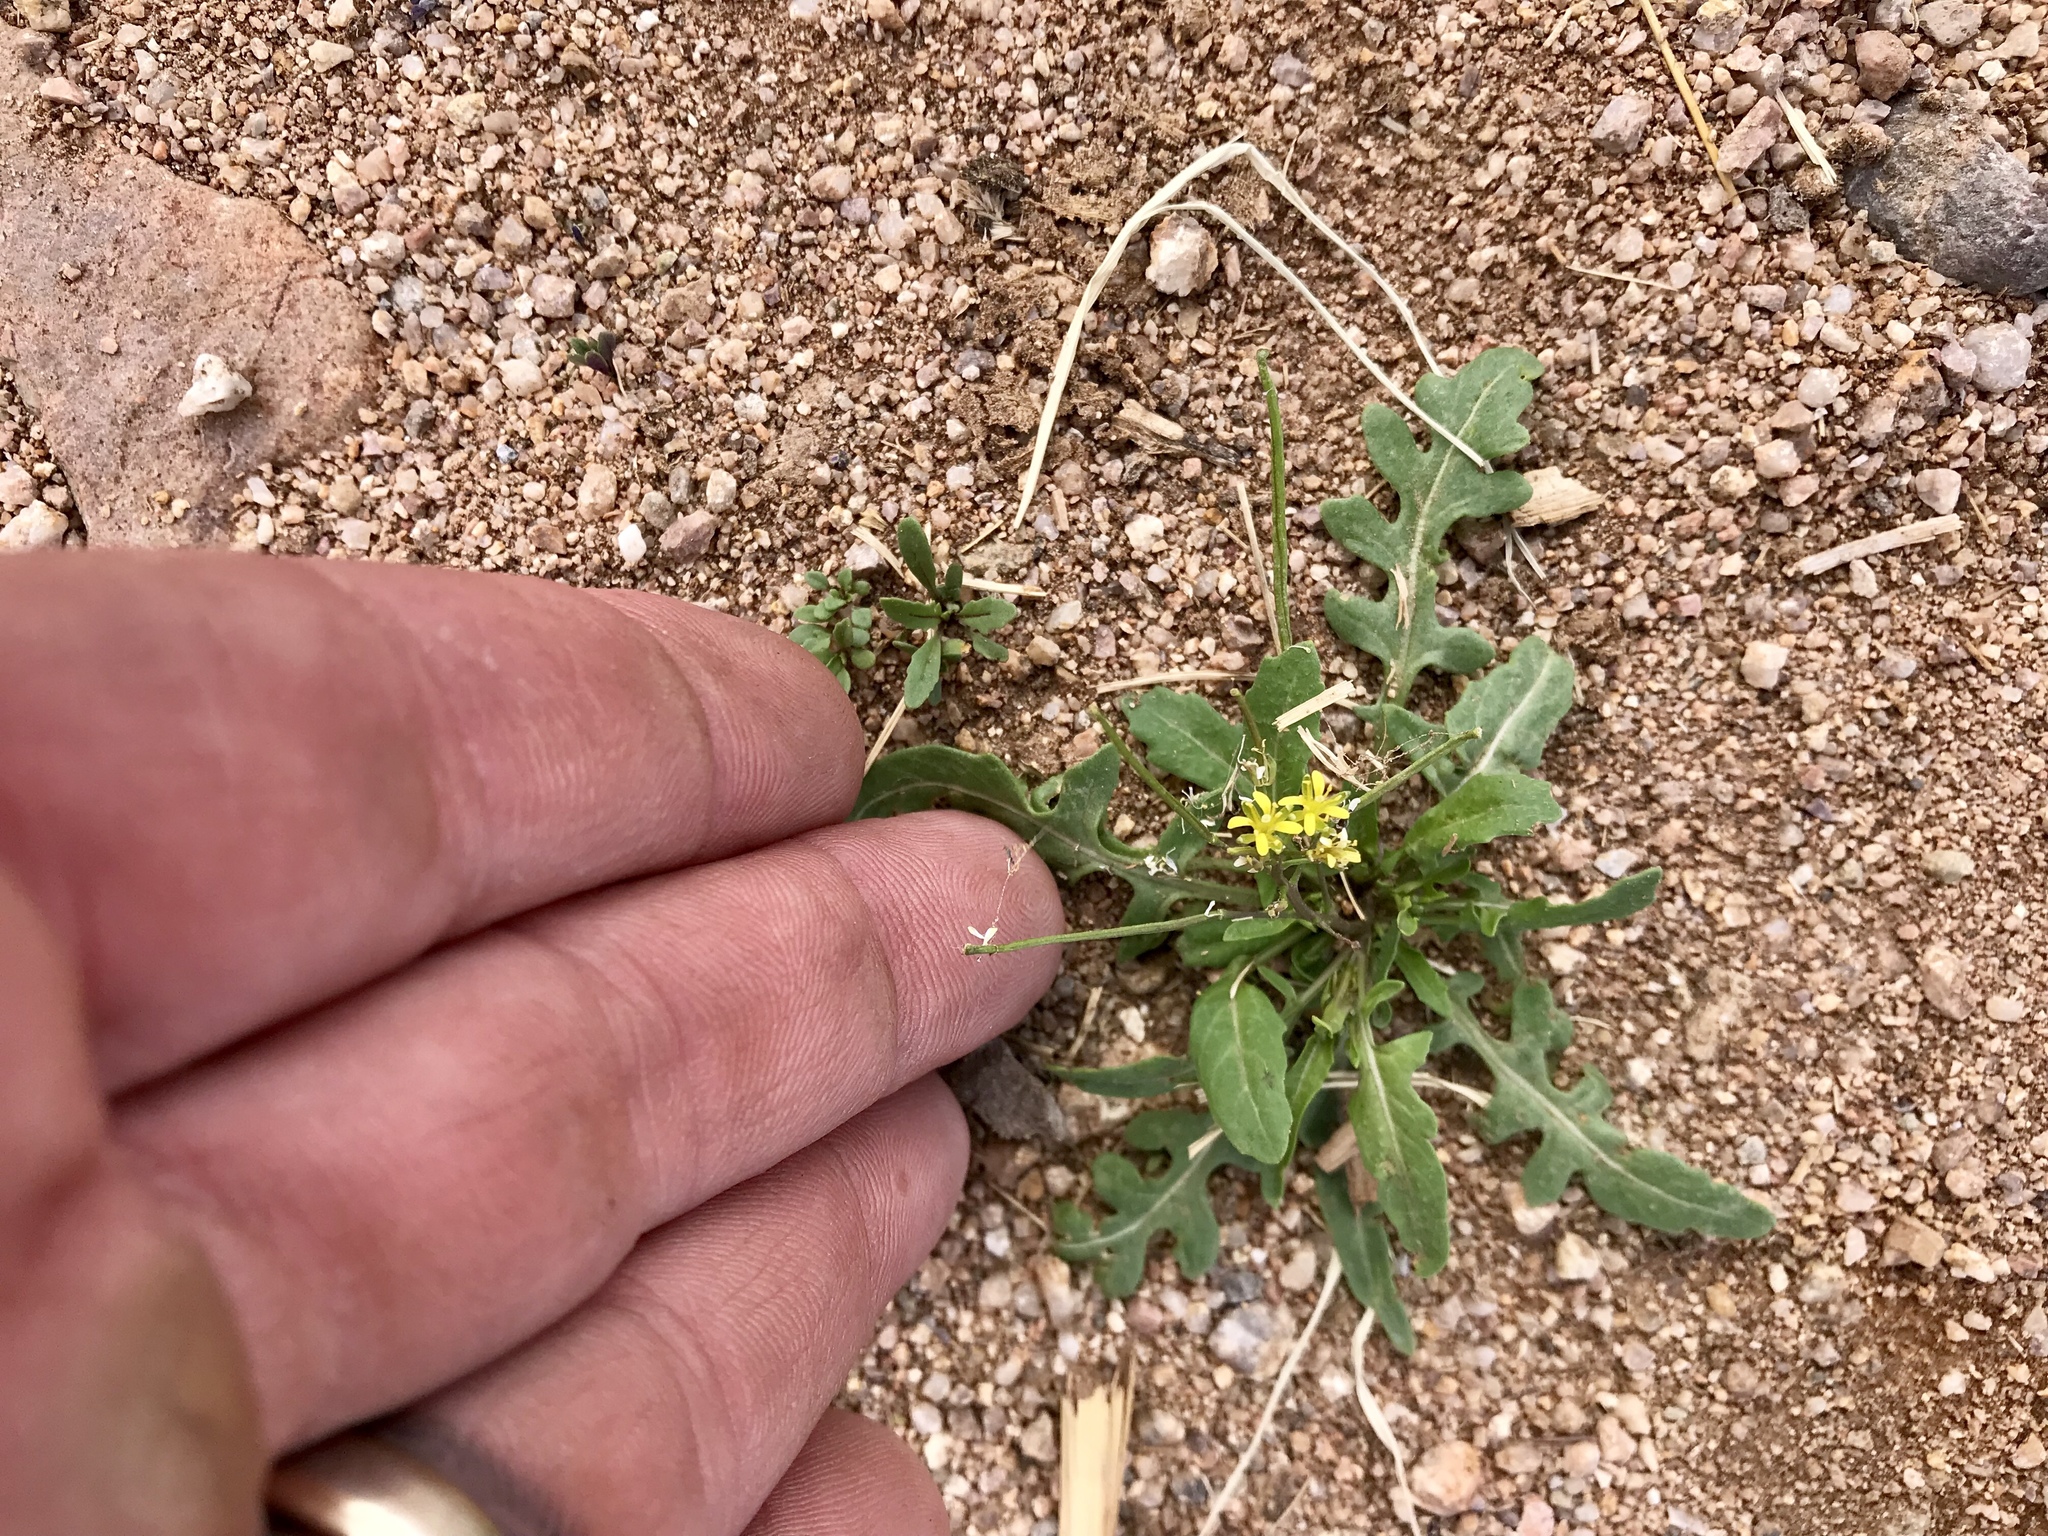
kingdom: Plantae
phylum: Tracheophyta
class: Magnoliopsida
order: Brassicales
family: Brassicaceae
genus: Sisymbrium
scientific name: Sisymbrium irio
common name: London rocket
